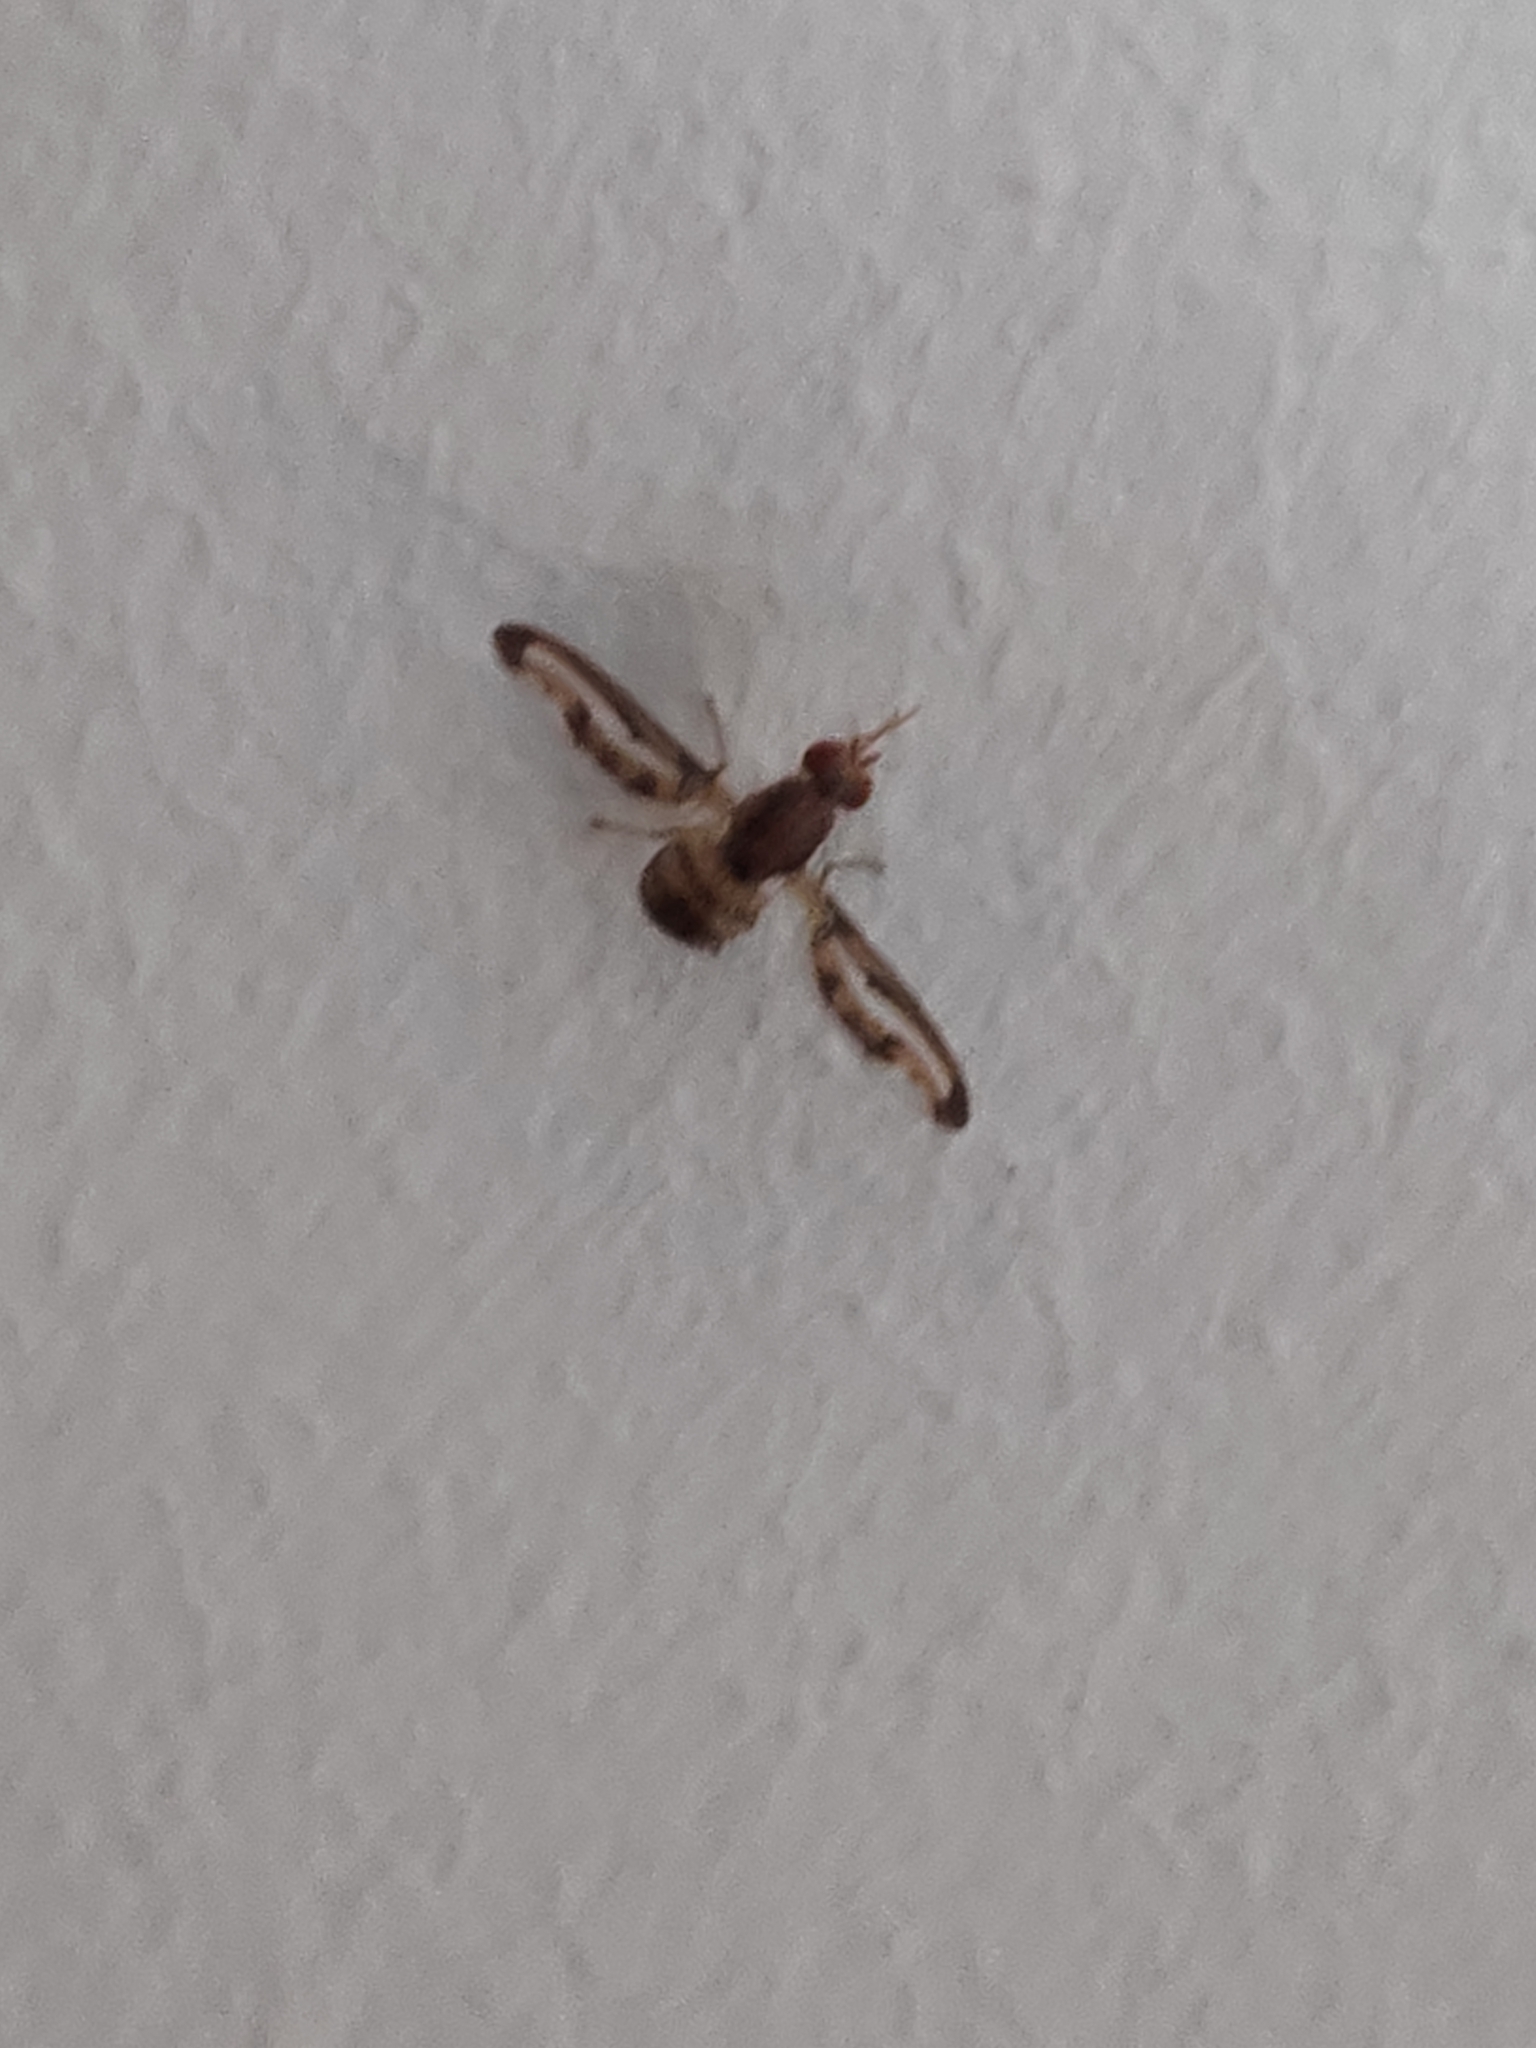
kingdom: Animalia
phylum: Arthropoda
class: Insecta
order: Diptera
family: Pallopteridae
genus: Toxonevra
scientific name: Toxonevra muliebris
